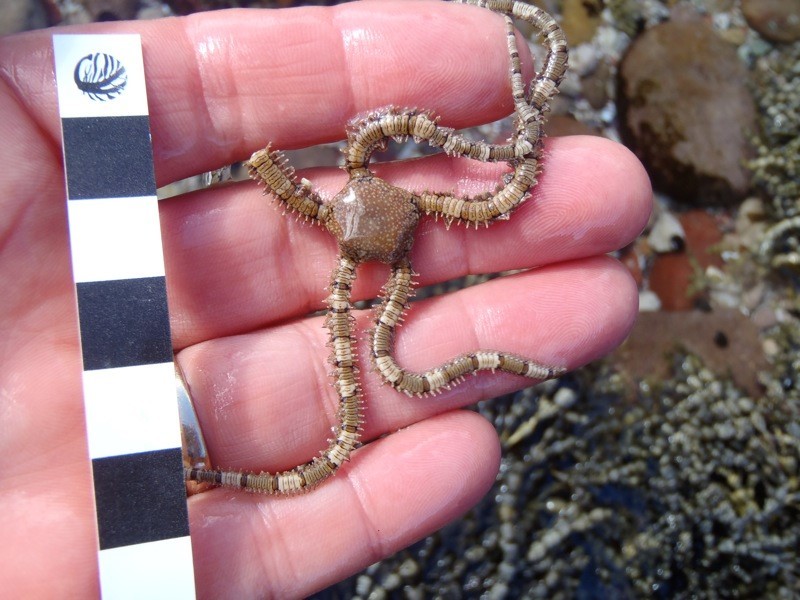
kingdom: Animalia
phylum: Echinodermata
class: Ophiuroidea
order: Amphilepidida
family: Ophionereididae
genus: Ophionereis
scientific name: Ophionereis schayeri
